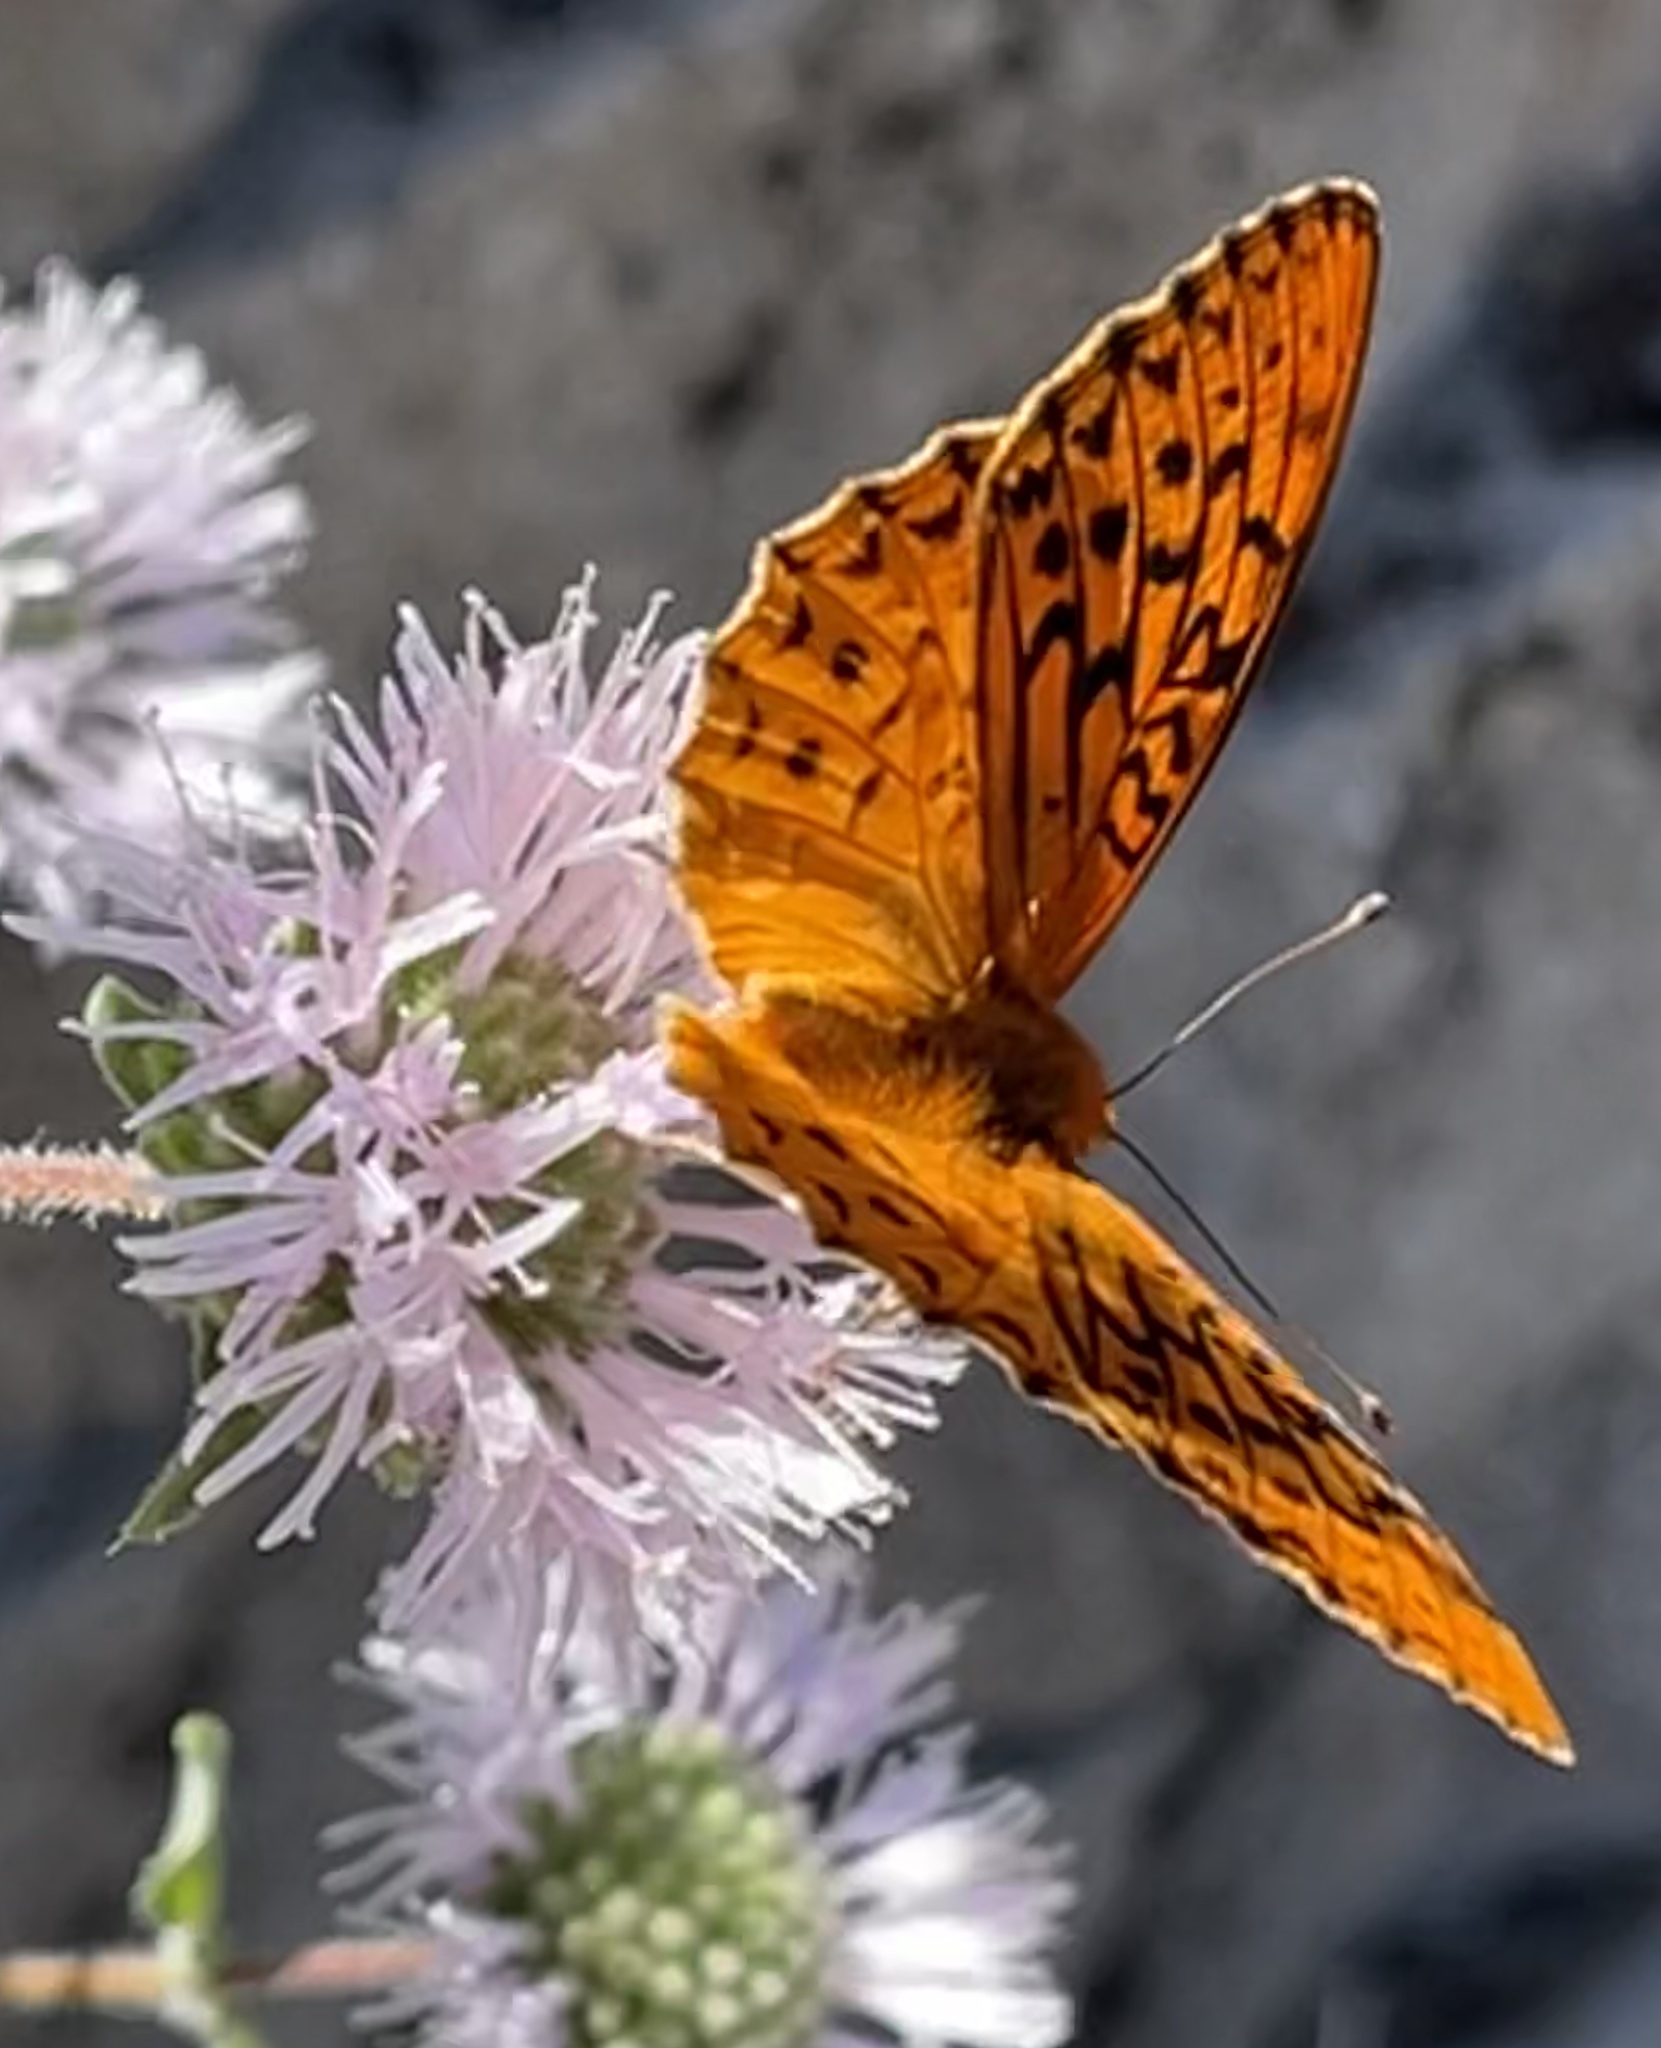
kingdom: Animalia
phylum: Arthropoda
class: Insecta
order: Lepidoptera
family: Nymphalidae
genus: Speyeria
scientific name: Speyeria adiaste
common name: Unsilvered fritillary
